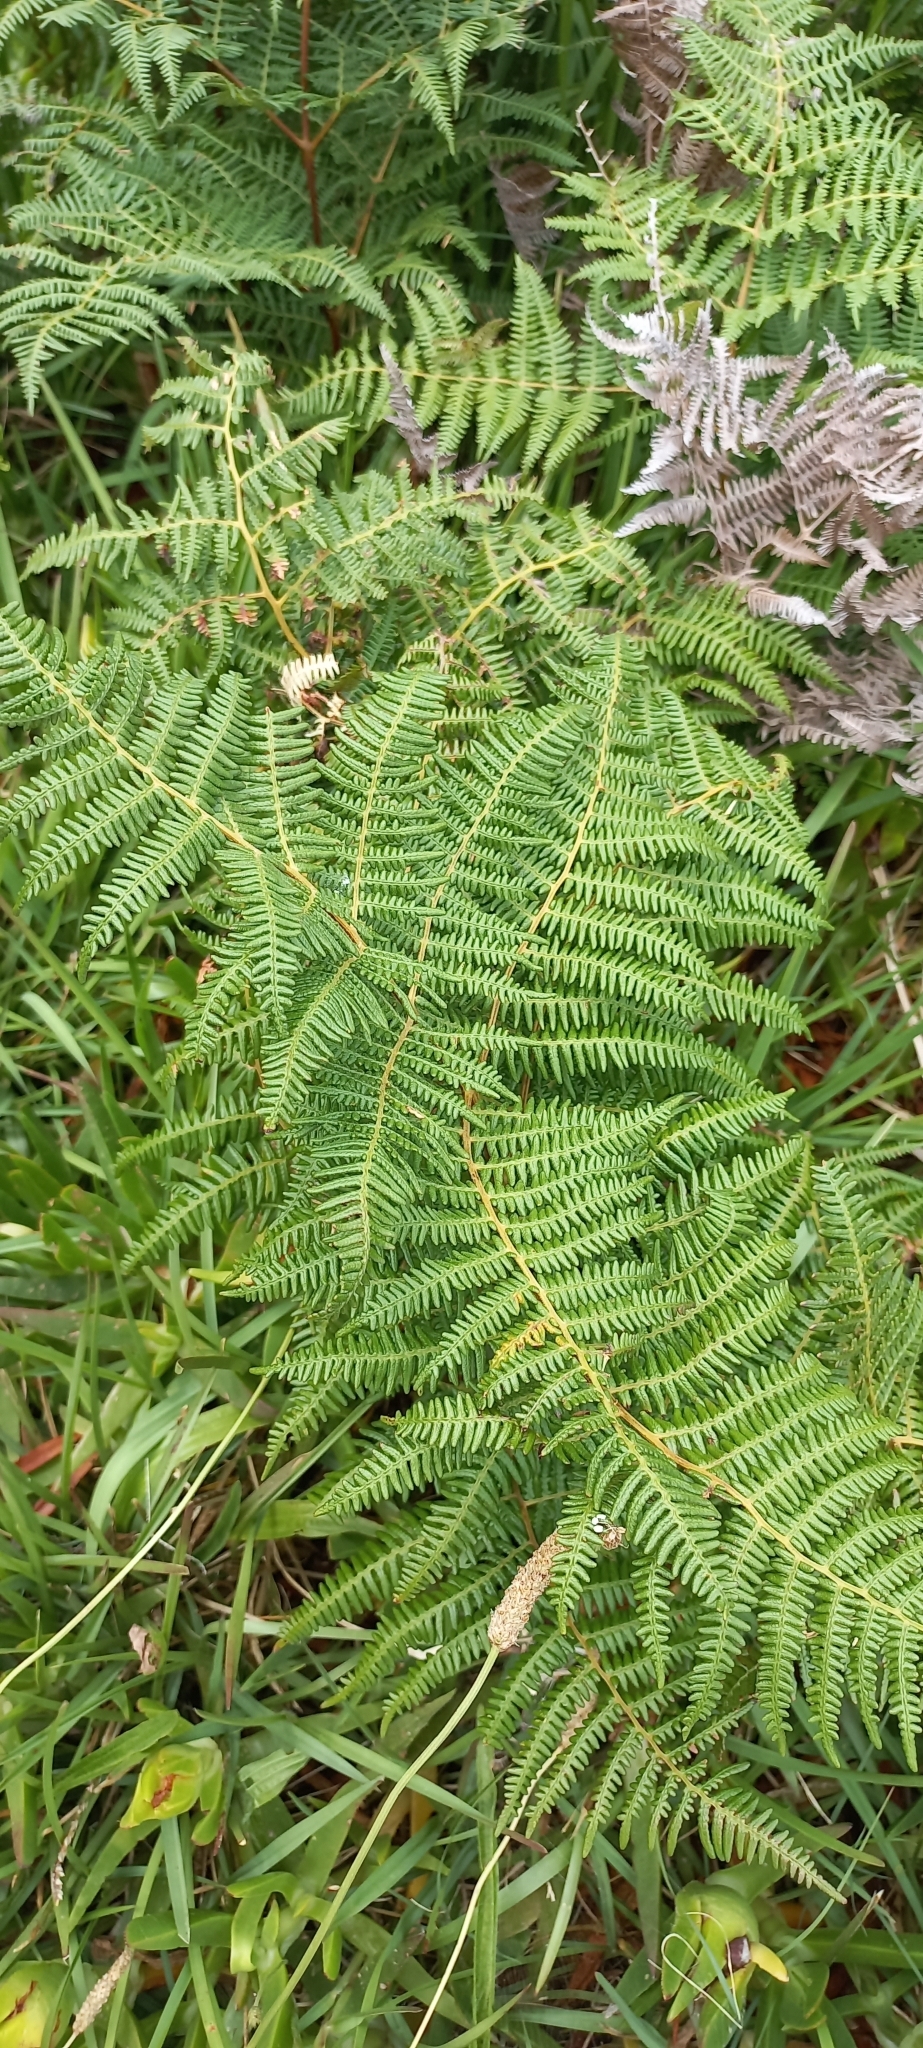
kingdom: Plantae
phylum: Tracheophyta
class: Polypodiopsida
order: Polypodiales
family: Dennstaedtiaceae
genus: Pteridium
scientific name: Pteridium aquilinum
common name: Bracken
